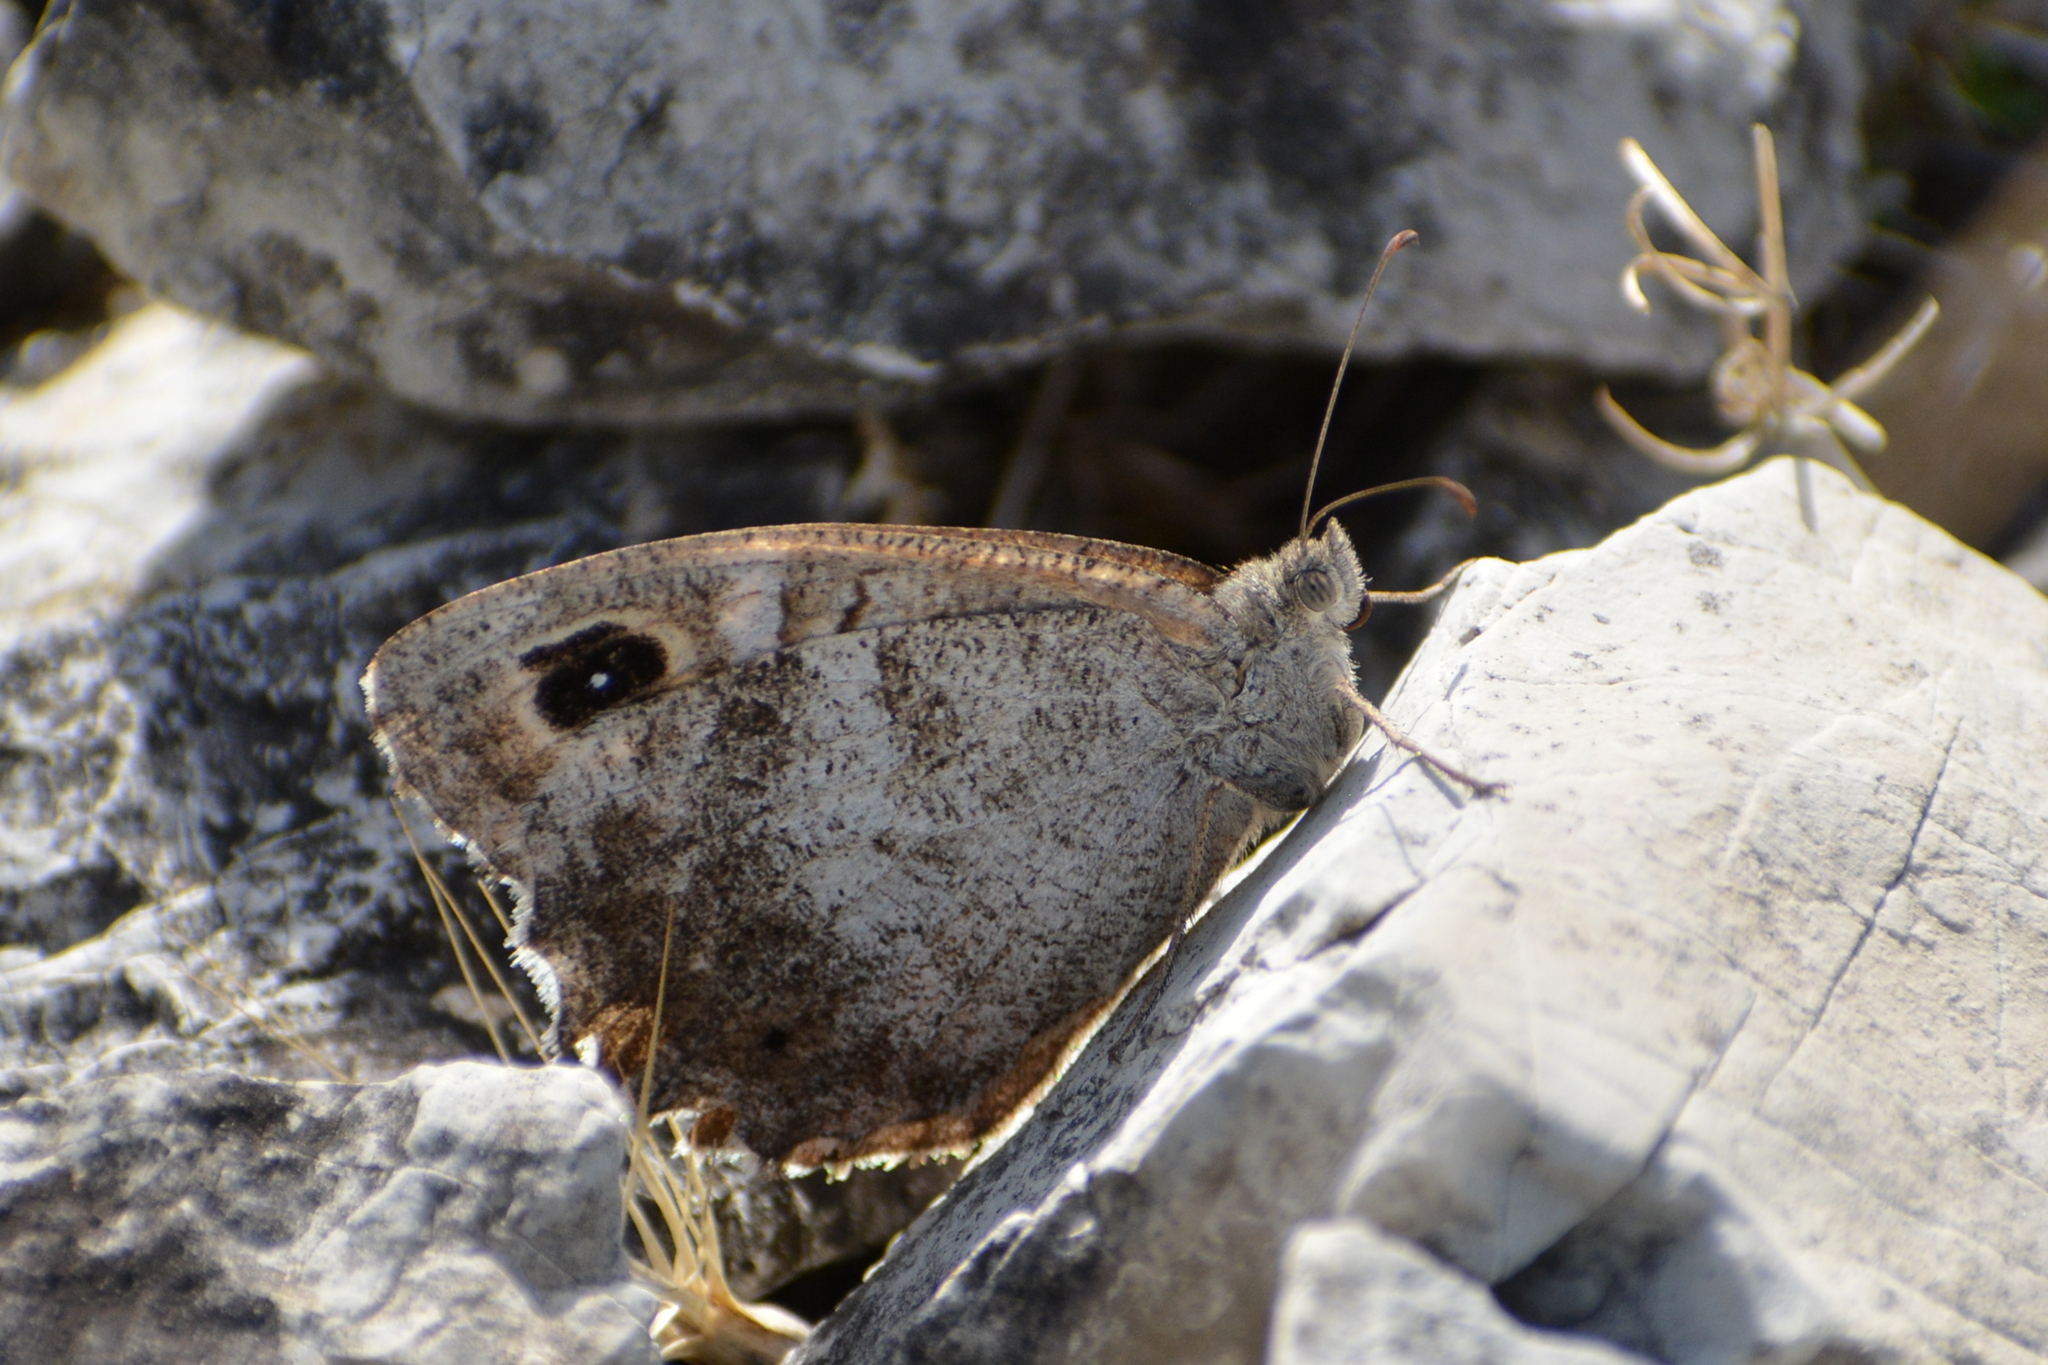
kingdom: Animalia
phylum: Arthropoda
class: Insecta
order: Lepidoptera
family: Nymphalidae
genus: Hipparchia
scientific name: Hipparchia statilinus
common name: Tree grayling
